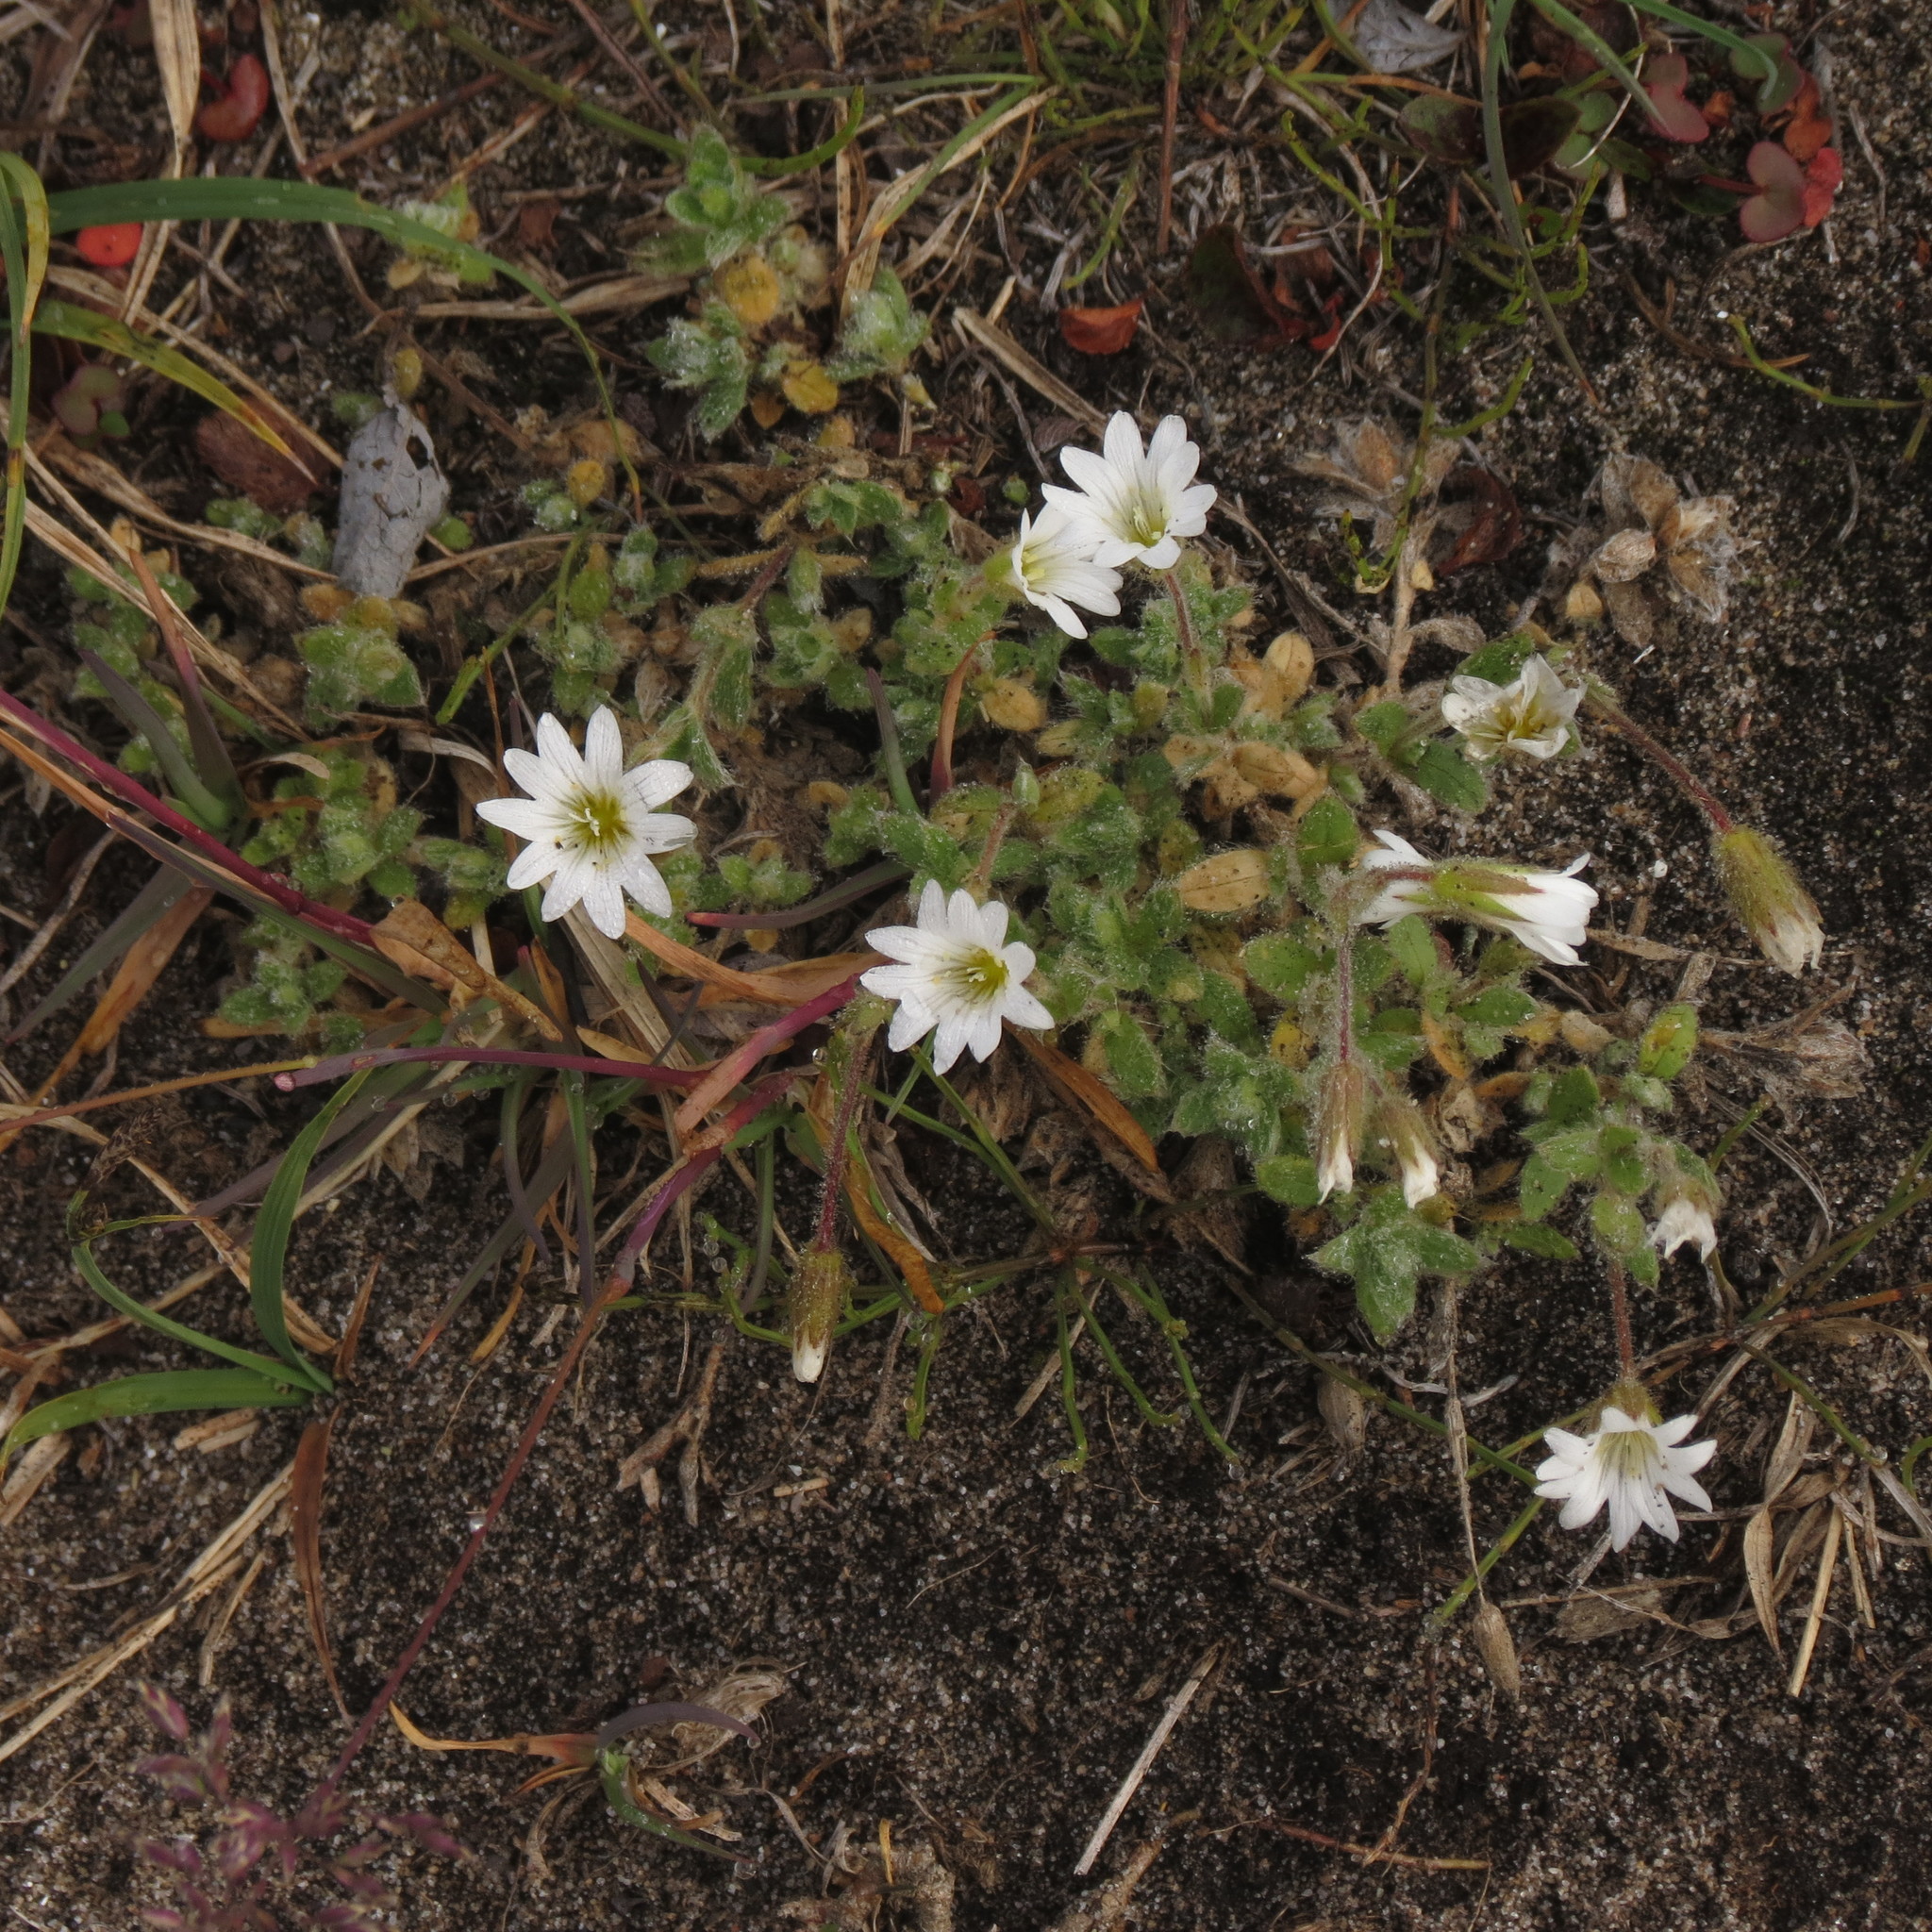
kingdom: Plantae
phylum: Tracheophyta
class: Magnoliopsida
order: Caryophyllales
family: Caryophyllaceae
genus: Cerastium
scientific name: Cerastium beeringianum
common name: Bering mouse-ear chickweed
